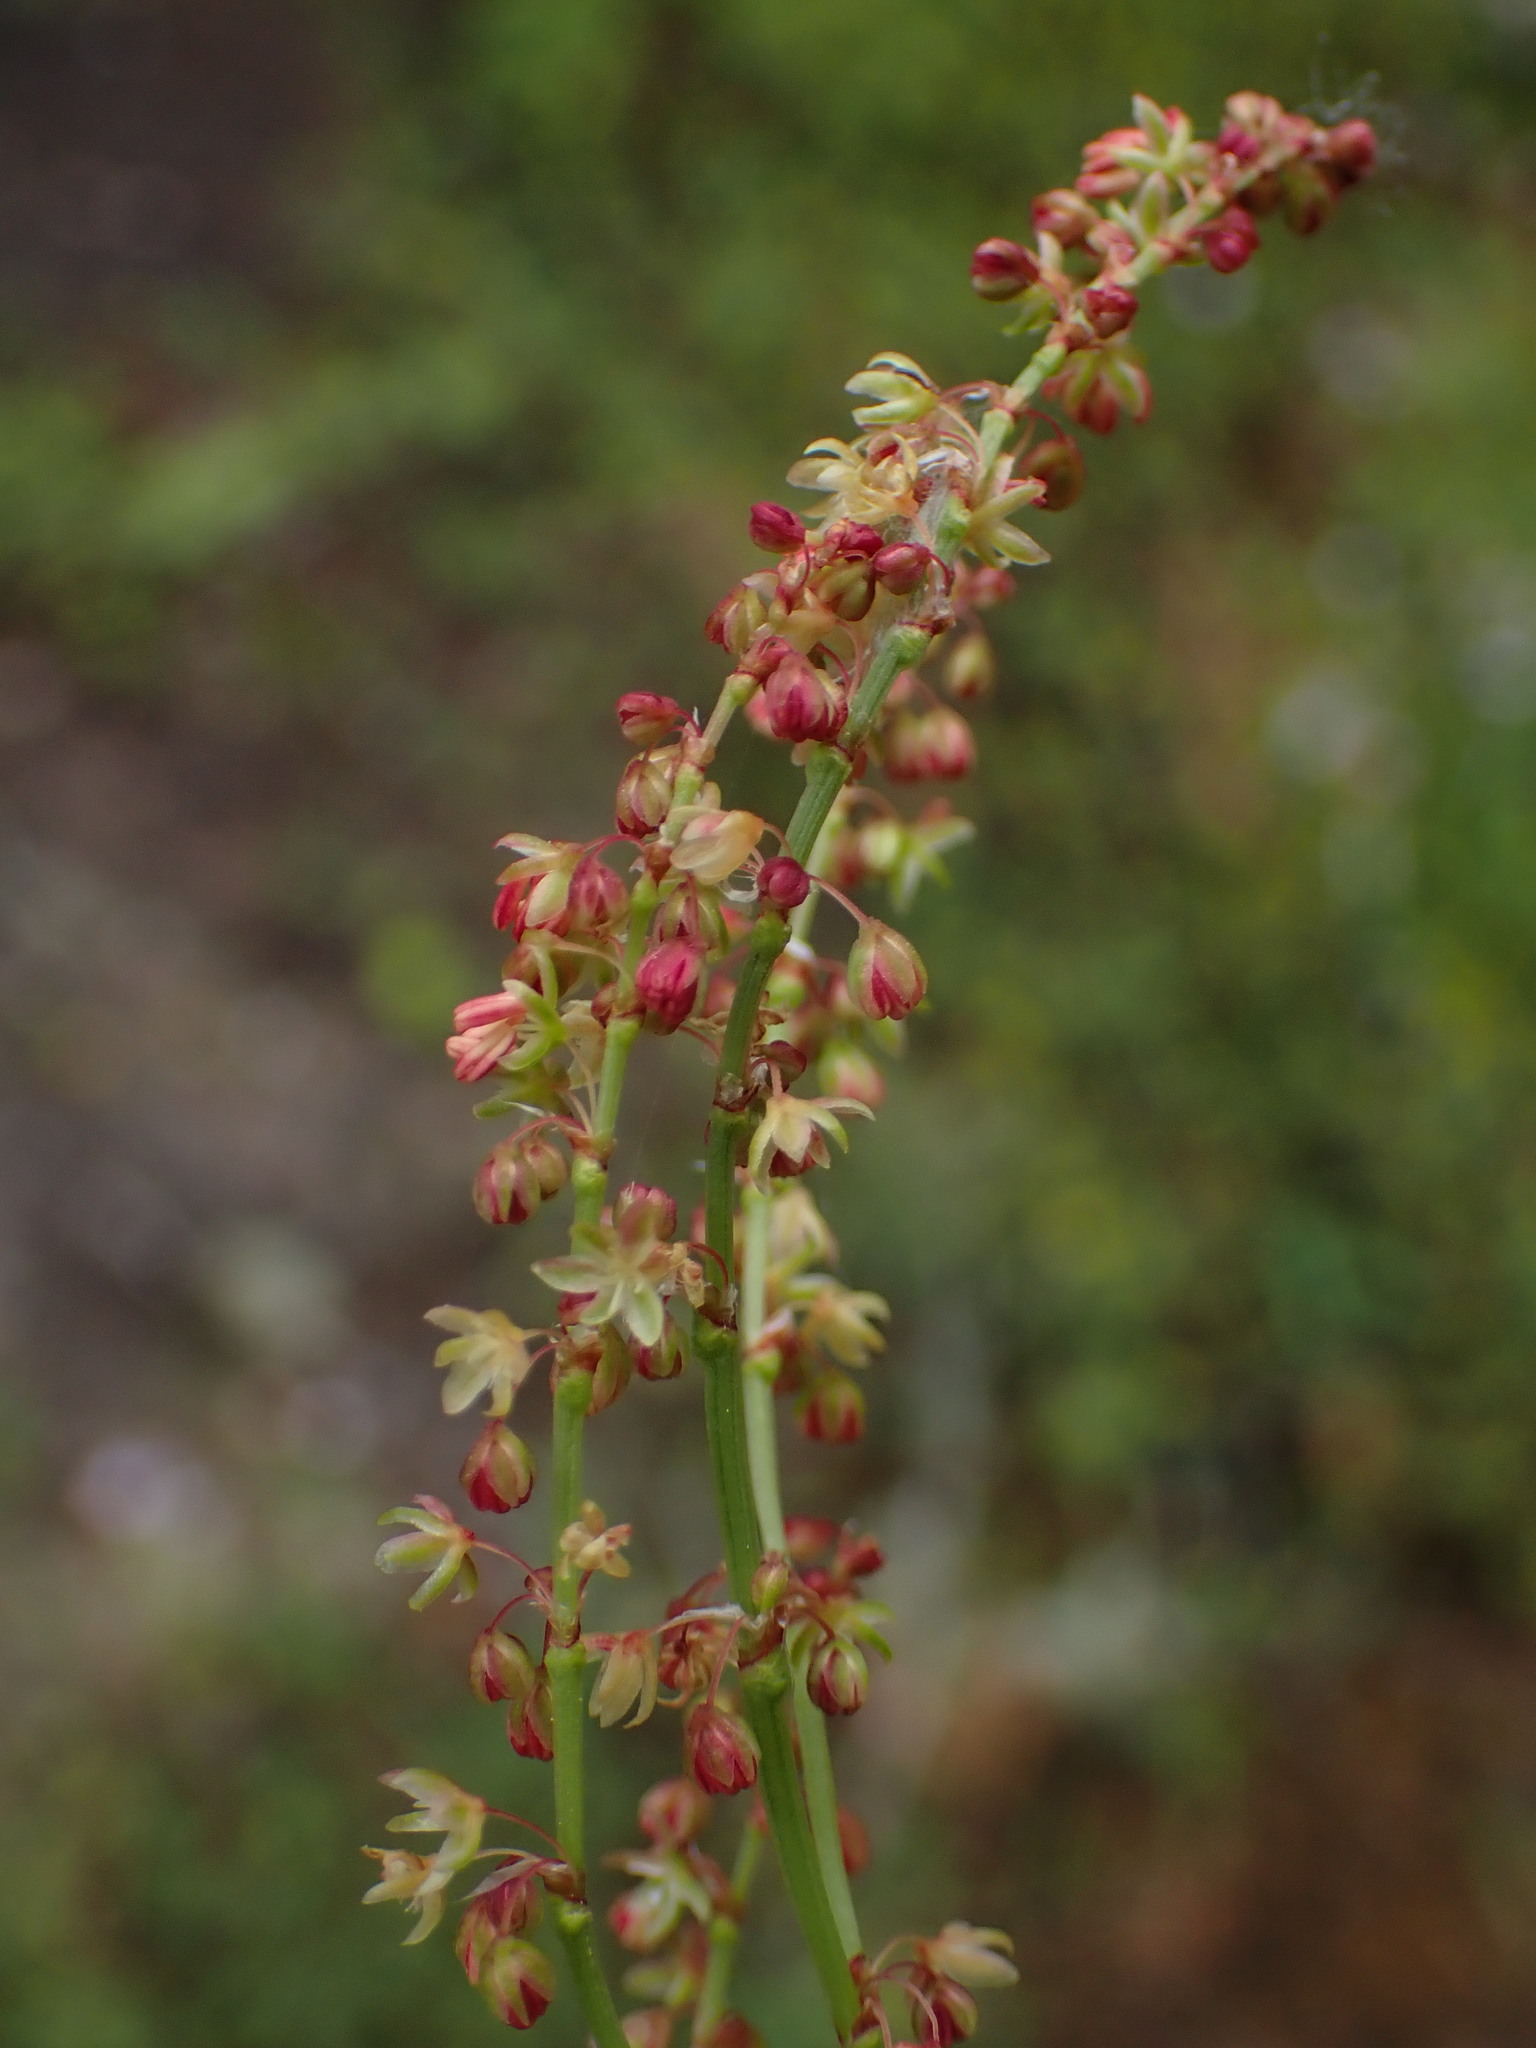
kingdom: Plantae
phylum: Tracheophyta
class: Magnoliopsida
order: Caryophyllales
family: Polygonaceae
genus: Rumex
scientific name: Rumex acetosella
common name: Common sheep sorrel
